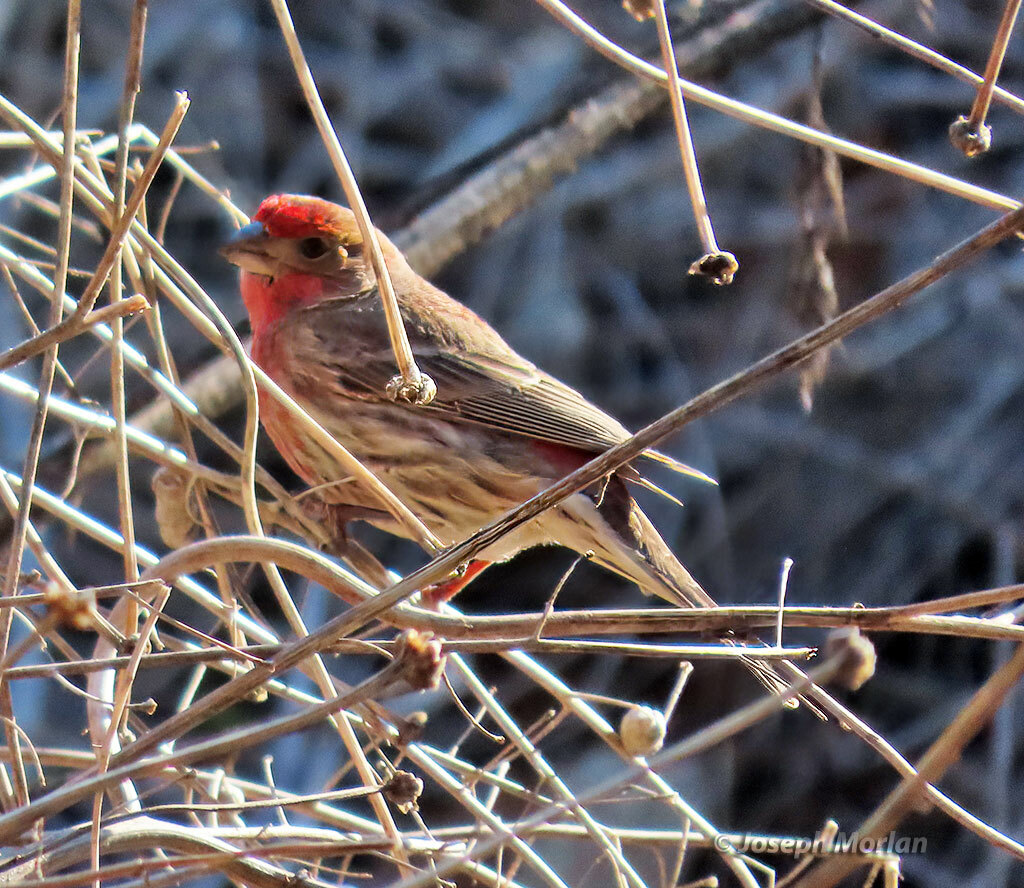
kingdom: Animalia
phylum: Chordata
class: Aves
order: Passeriformes
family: Fringillidae
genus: Haemorhous
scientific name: Haemorhous mexicanus
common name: House finch
